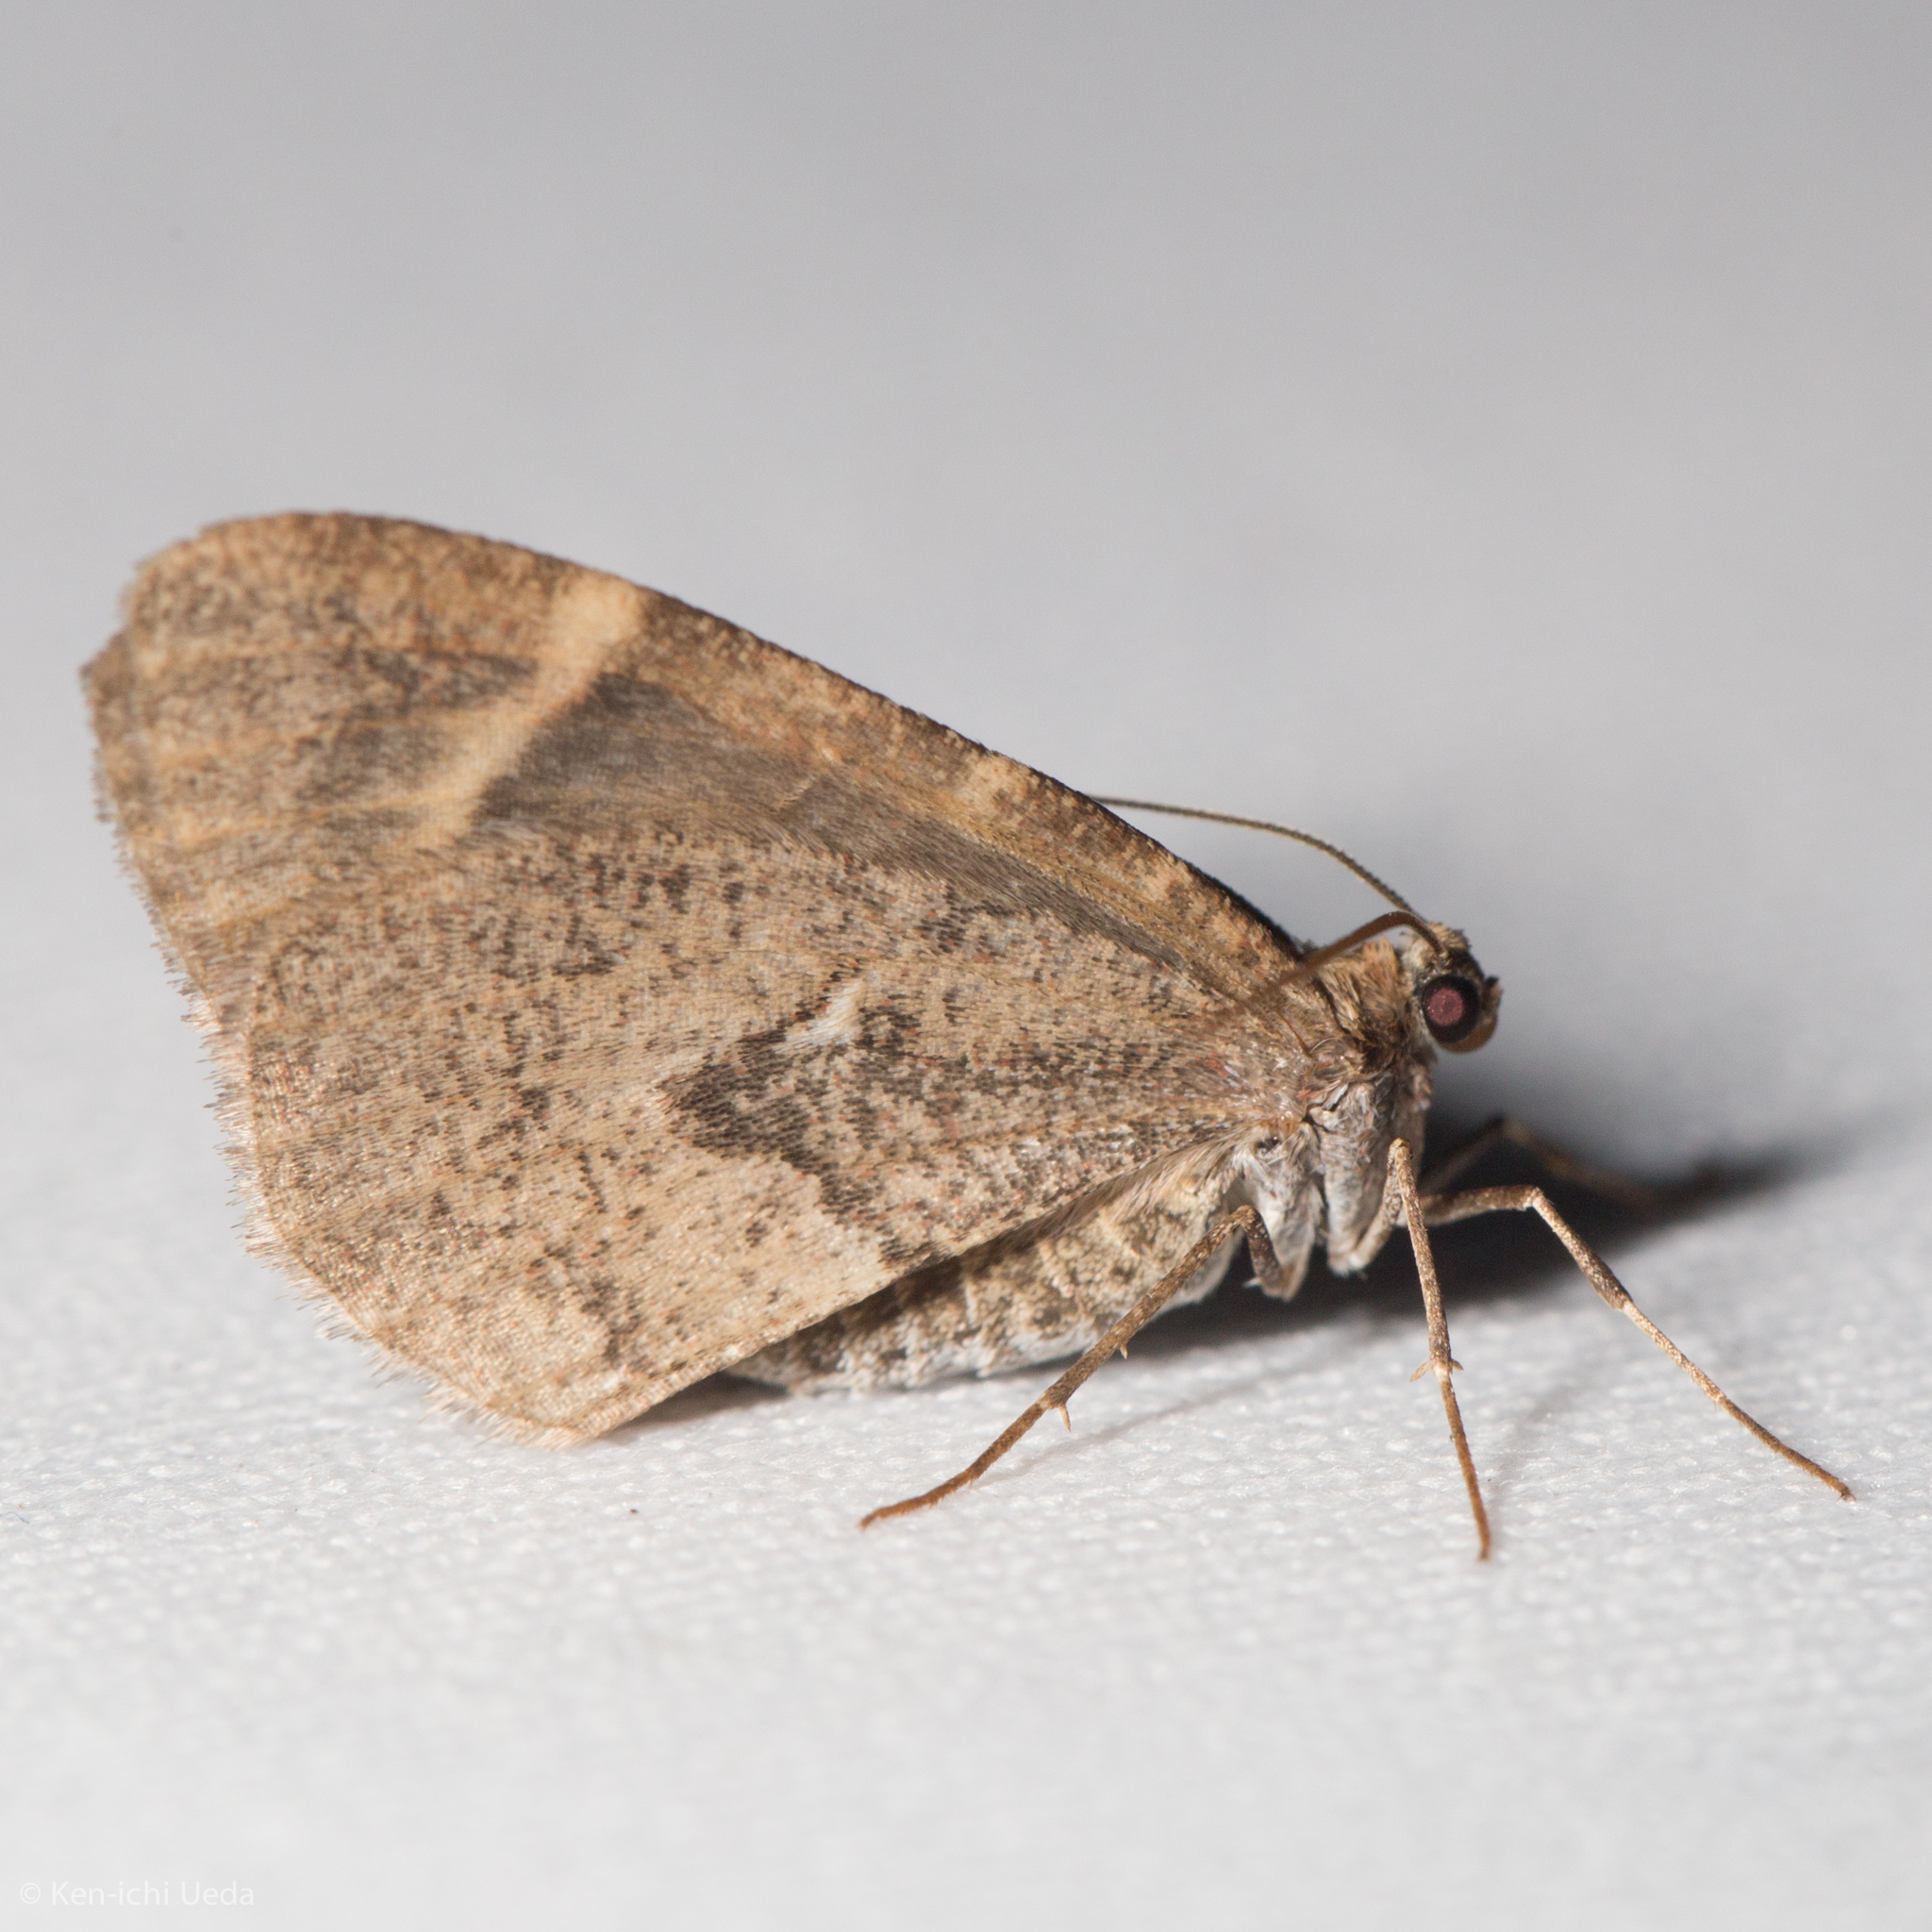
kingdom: Animalia
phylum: Arthropoda
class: Insecta
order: Lepidoptera
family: Geometridae
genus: Stamnodes
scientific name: Stamnodes coenonymphata
